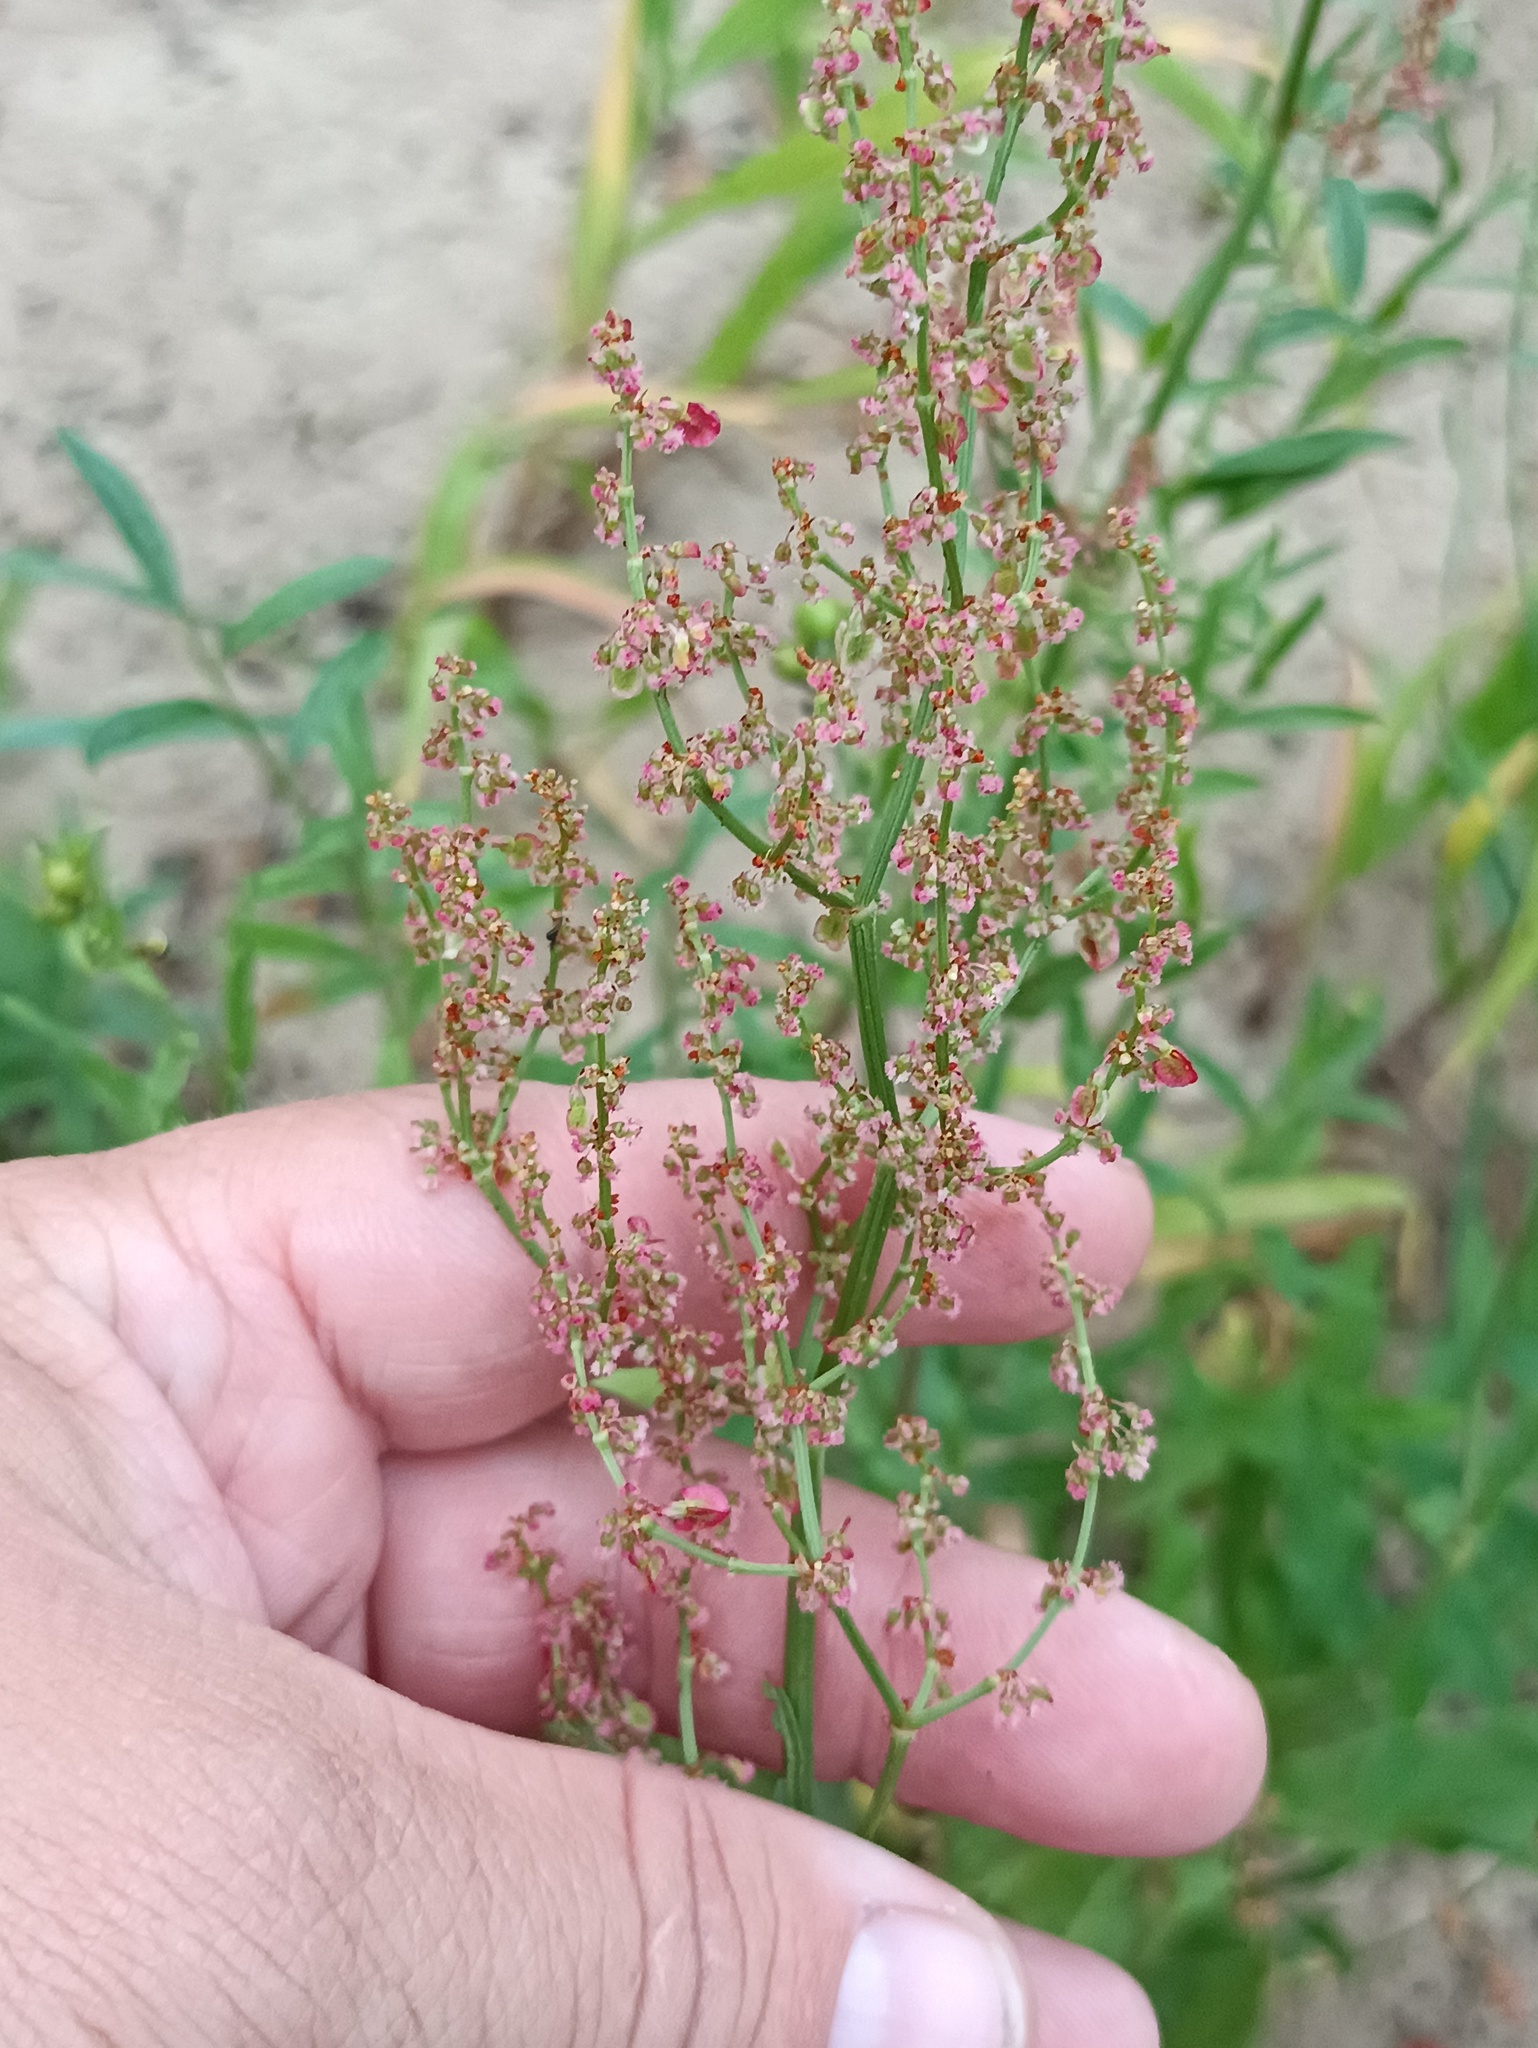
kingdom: Plantae
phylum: Tracheophyta
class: Magnoliopsida
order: Caryophyllales
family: Polygonaceae
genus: Rumex
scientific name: Rumex thyrsiflorus
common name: Garden sorrel
